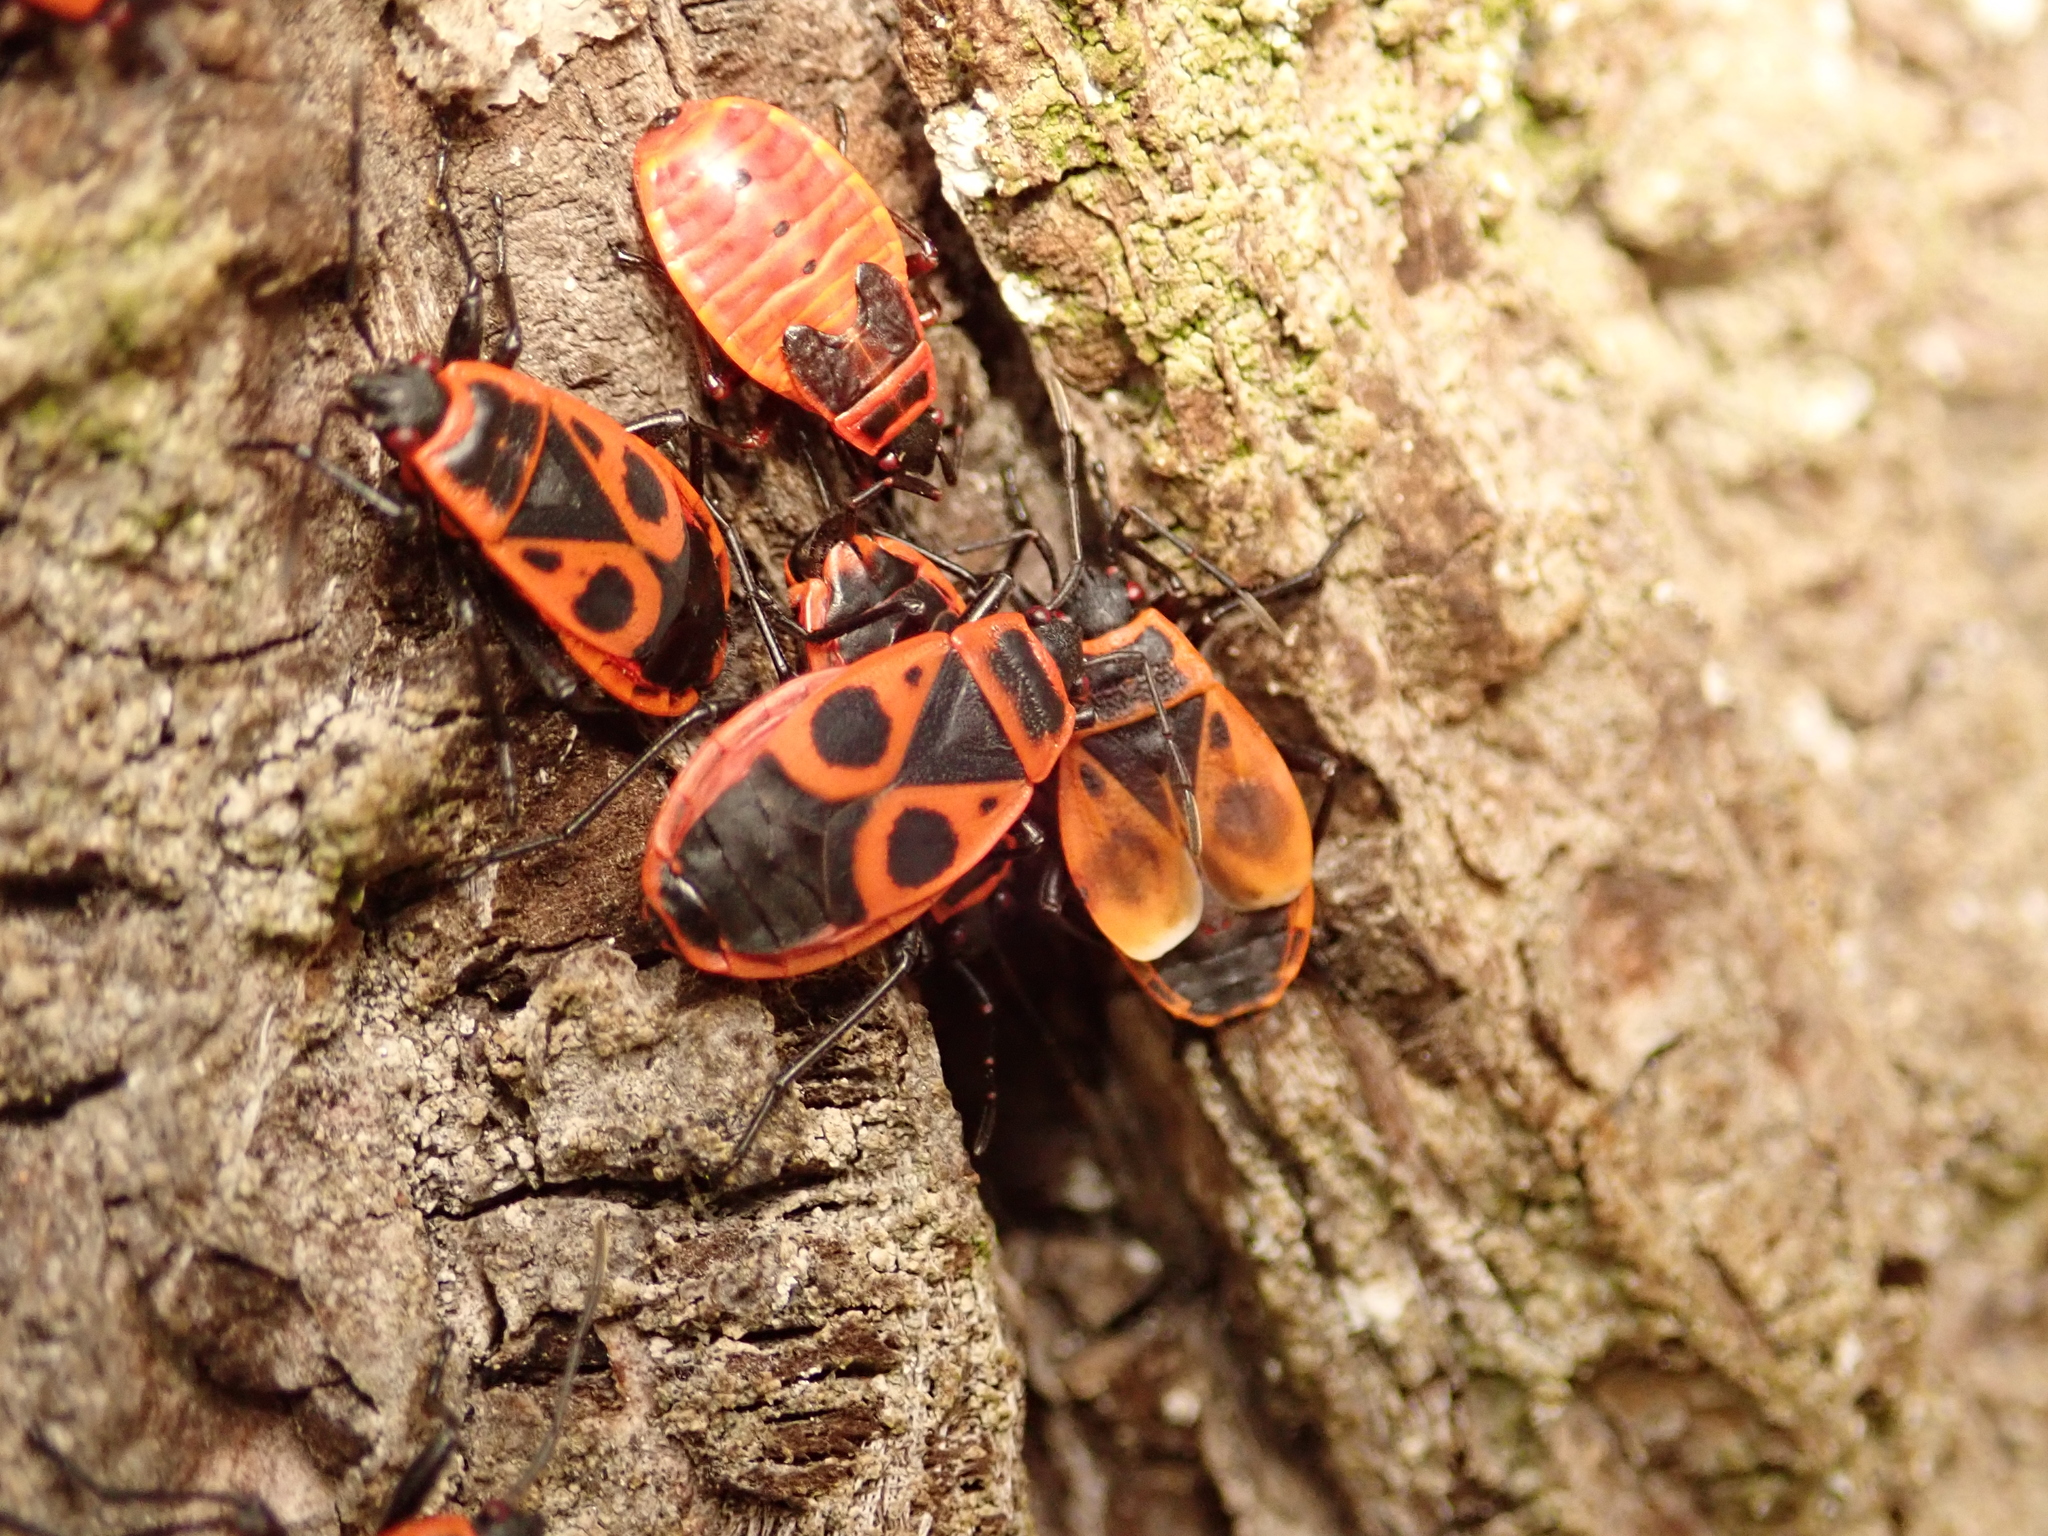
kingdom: Animalia
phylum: Arthropoda
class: Insecta
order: Hemiptera
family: Pyrrhocoridae
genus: Pyrrhocoris
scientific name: Pyrrhocoris apterus
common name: Firebug
